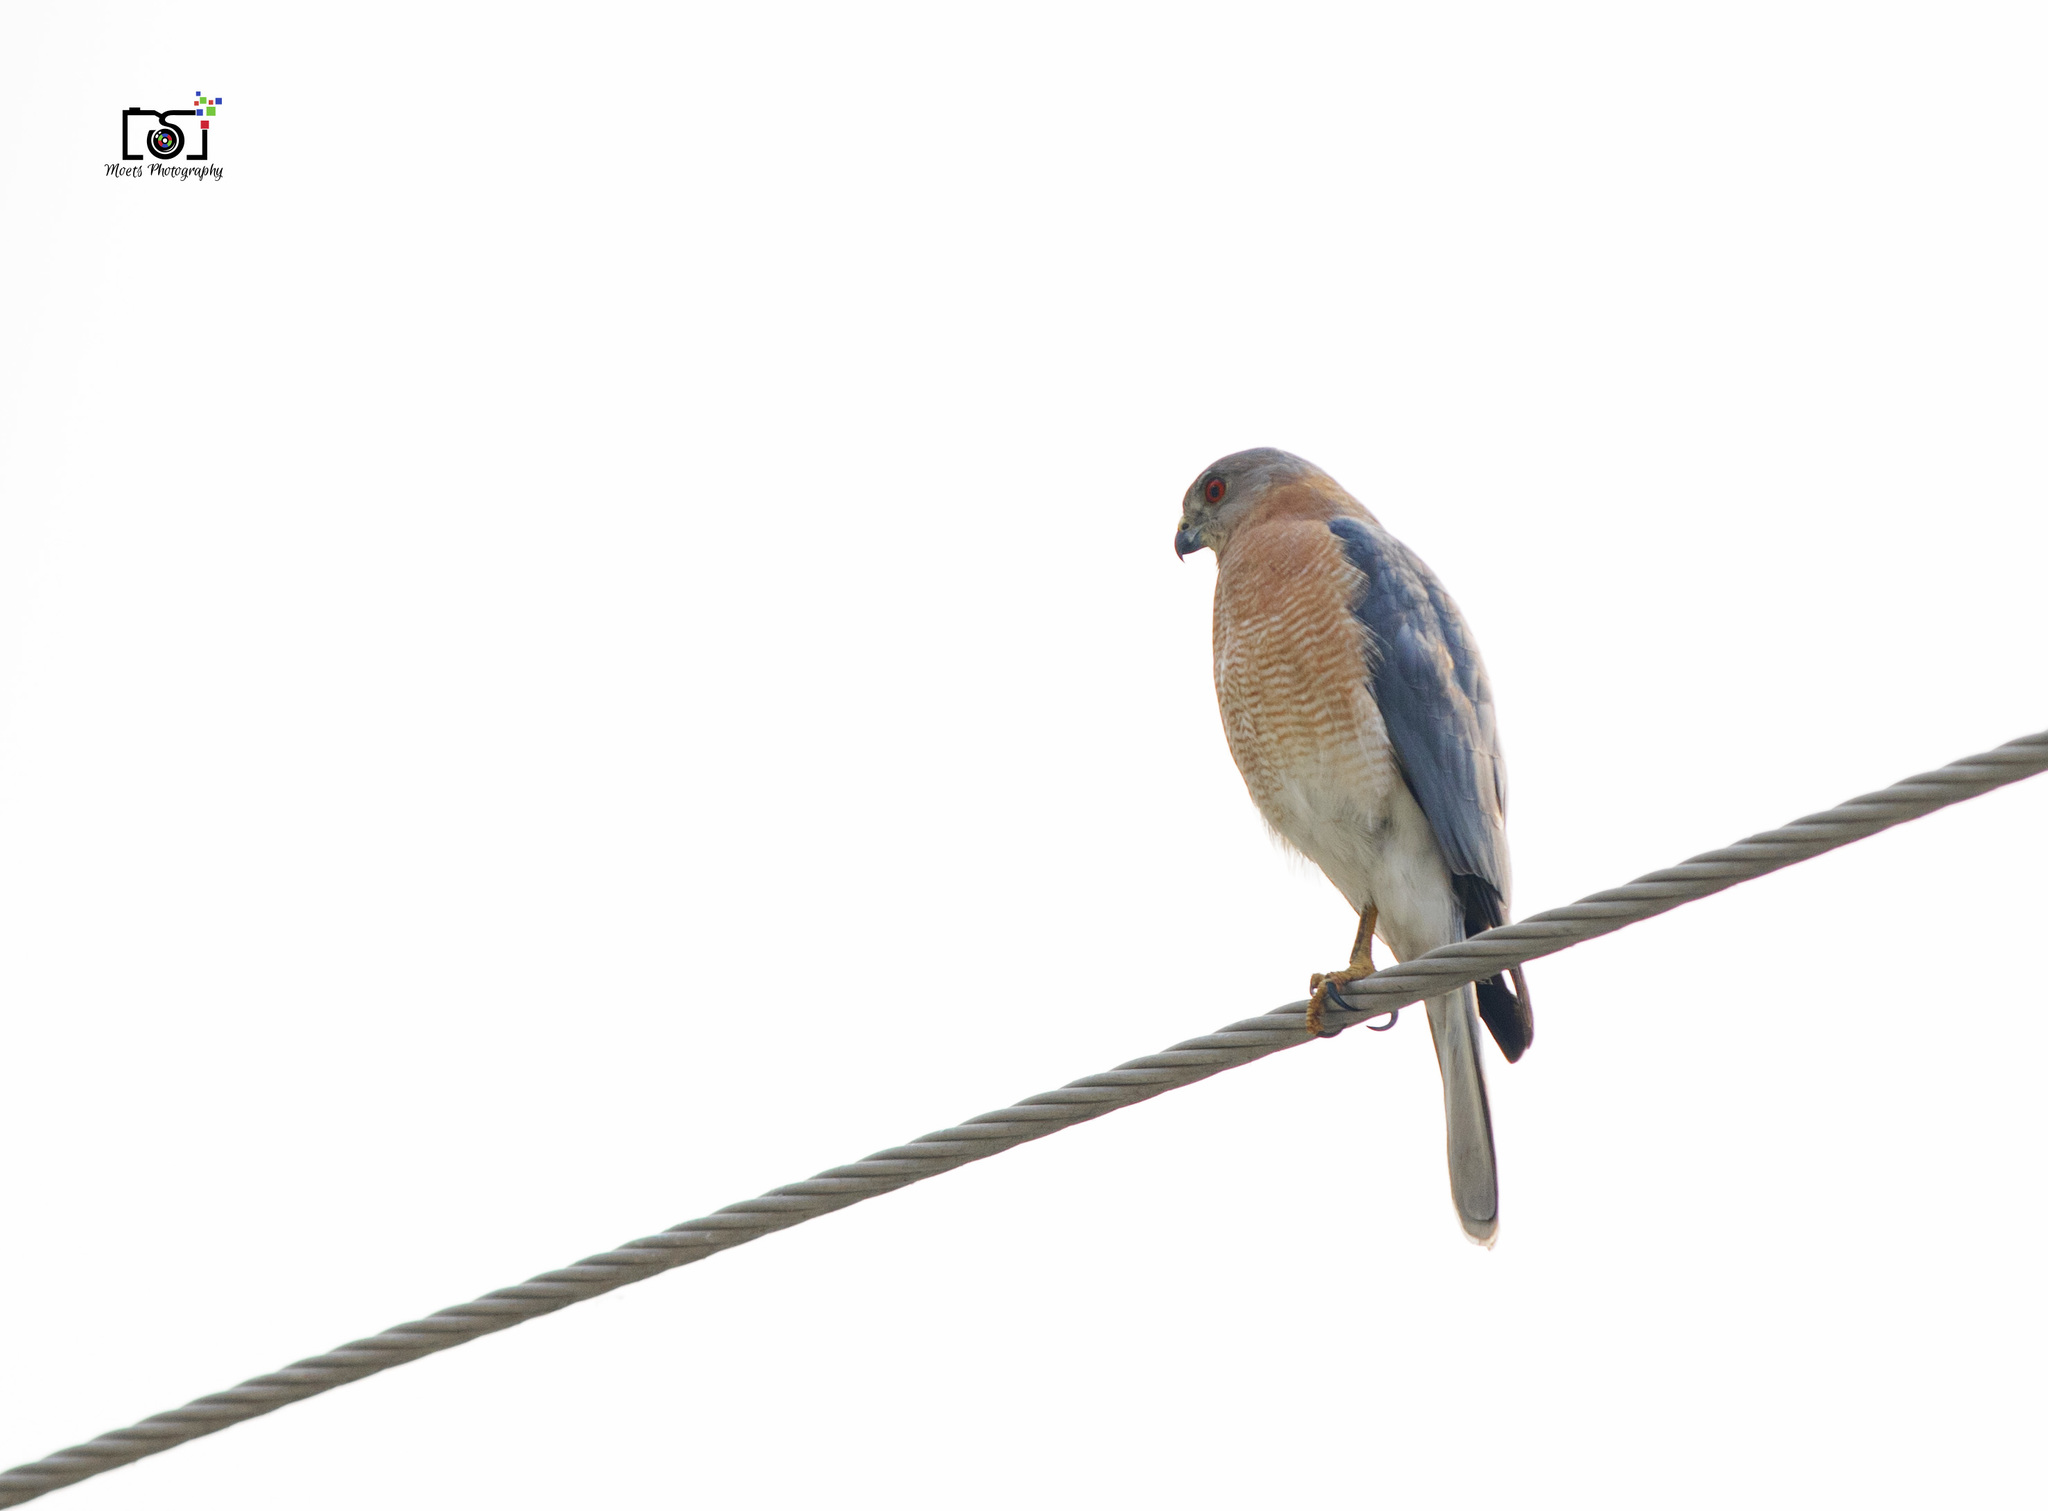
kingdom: Animalia
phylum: Chordata
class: Aves
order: Accipitriformes
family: Accipitridae
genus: Accipiter
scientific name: Accipiter badius
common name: Shikra
